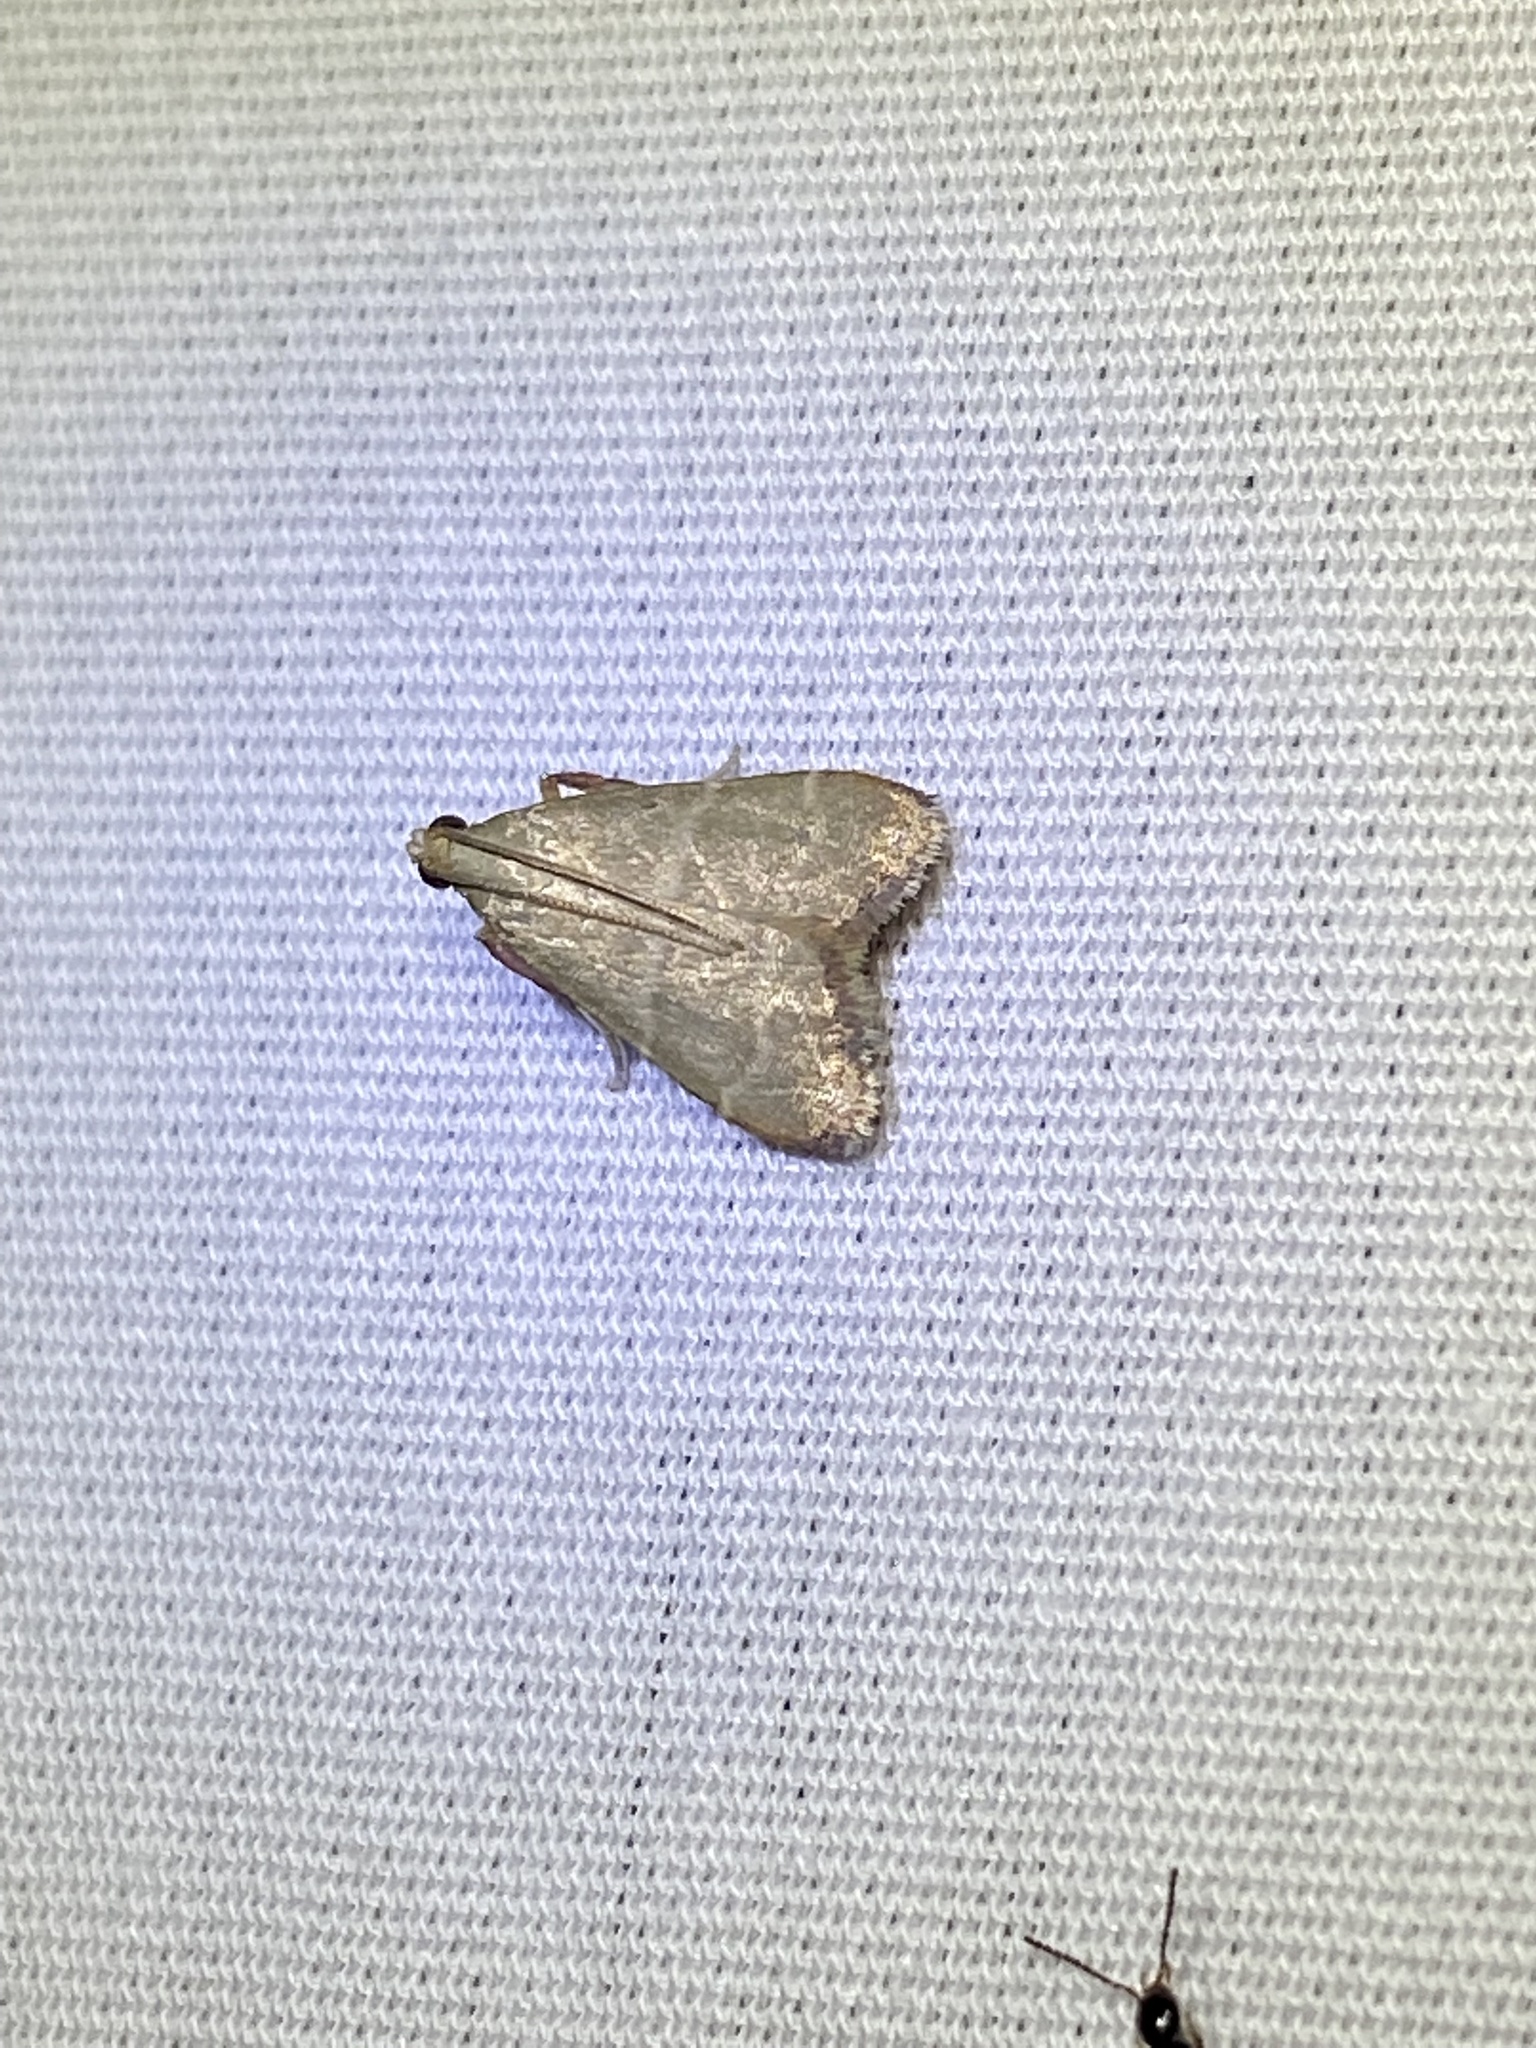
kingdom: Animalia
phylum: Arthropoda
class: Insecta
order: Lepidoptera
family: Pyralidae
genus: Arta
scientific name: Arta olivalis
